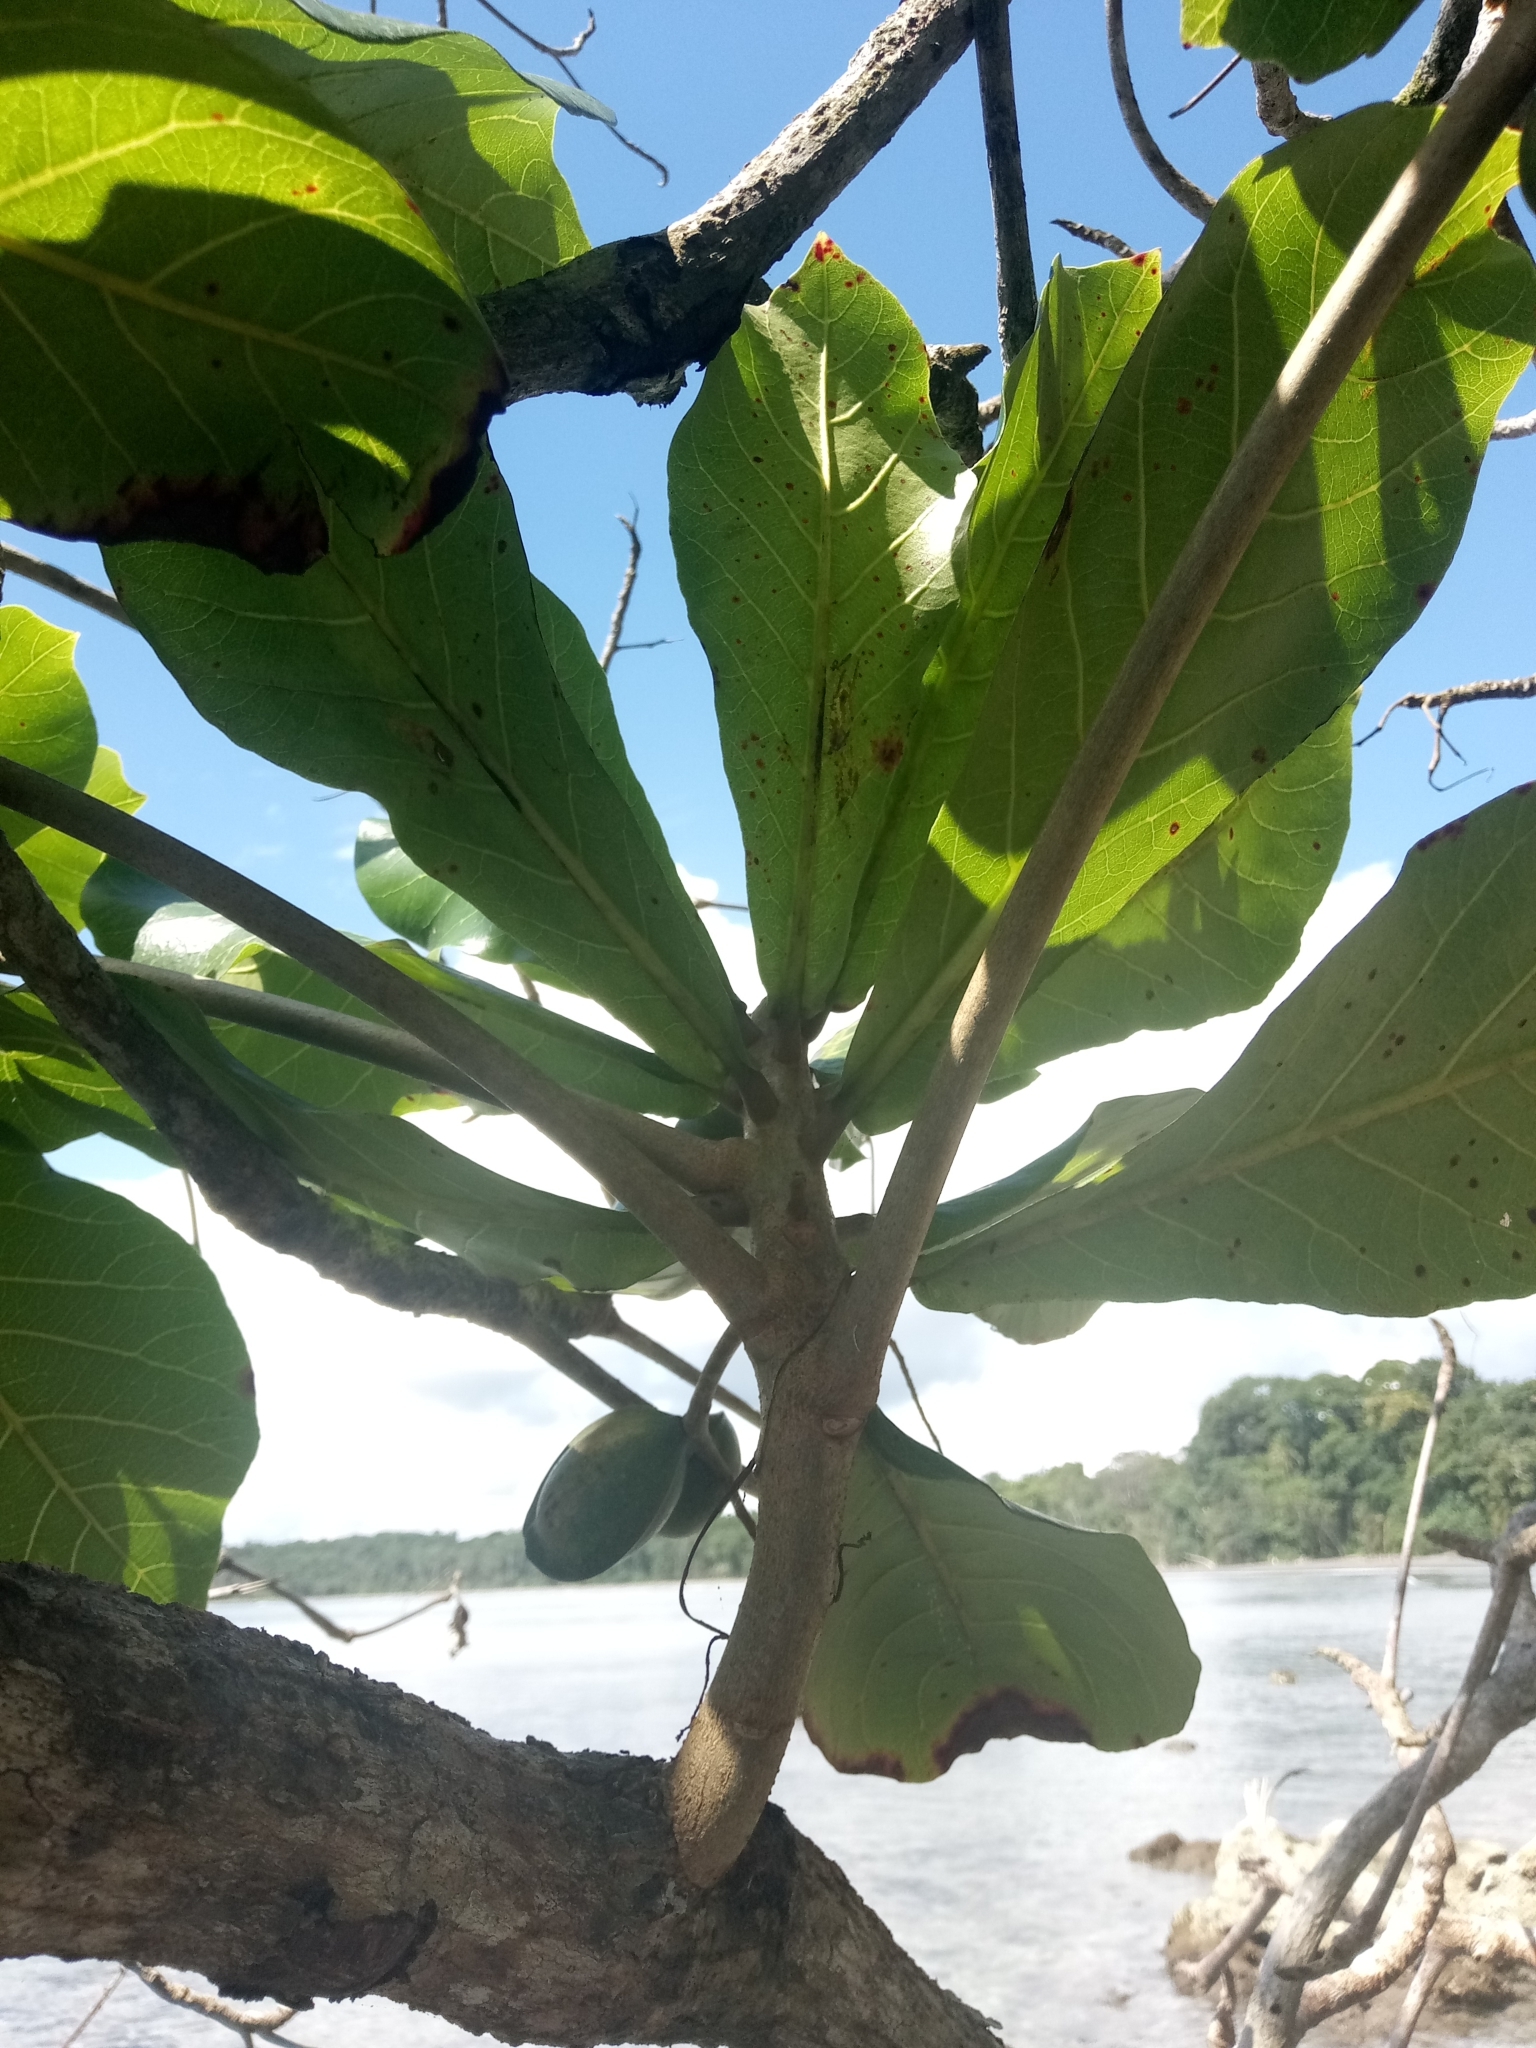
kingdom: Plantae
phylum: Tracheophyta
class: Magnoliopsida
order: Myrtales
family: Combretaceae
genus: Terminalia
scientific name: Terminalia catappa
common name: Tropical almond
